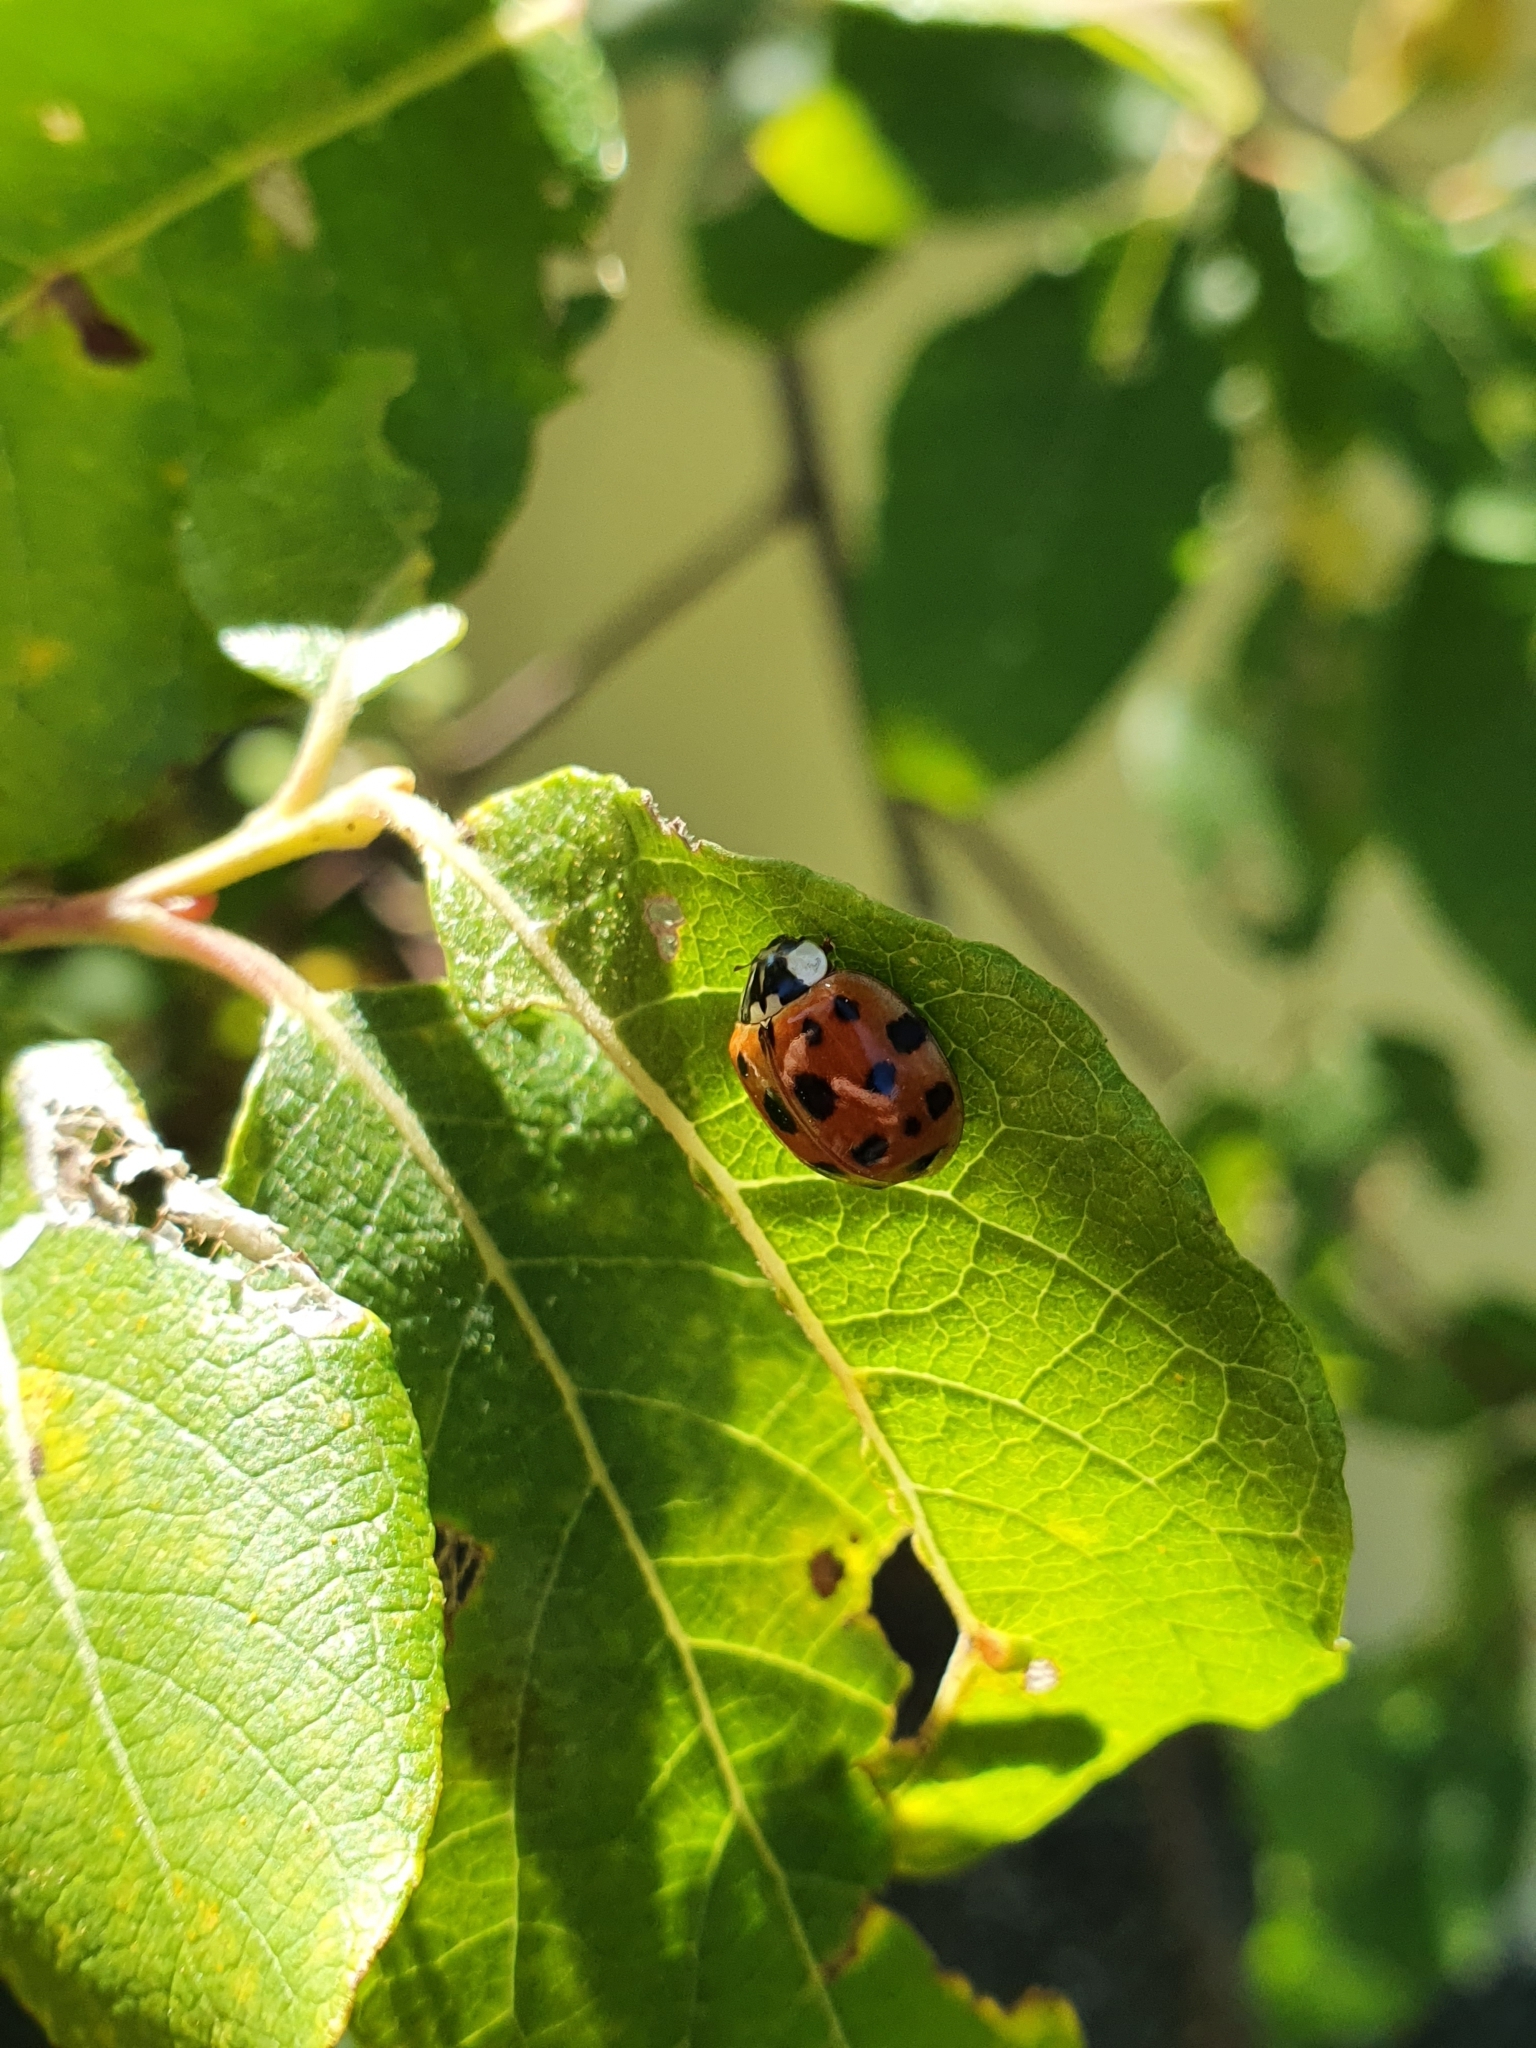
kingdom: Animalia
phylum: Arthropoda
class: Insecta
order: Coleoptera
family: Coccinellidae
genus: Harmonia
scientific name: Harmonia axyridis
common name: Harlequin ladybird
